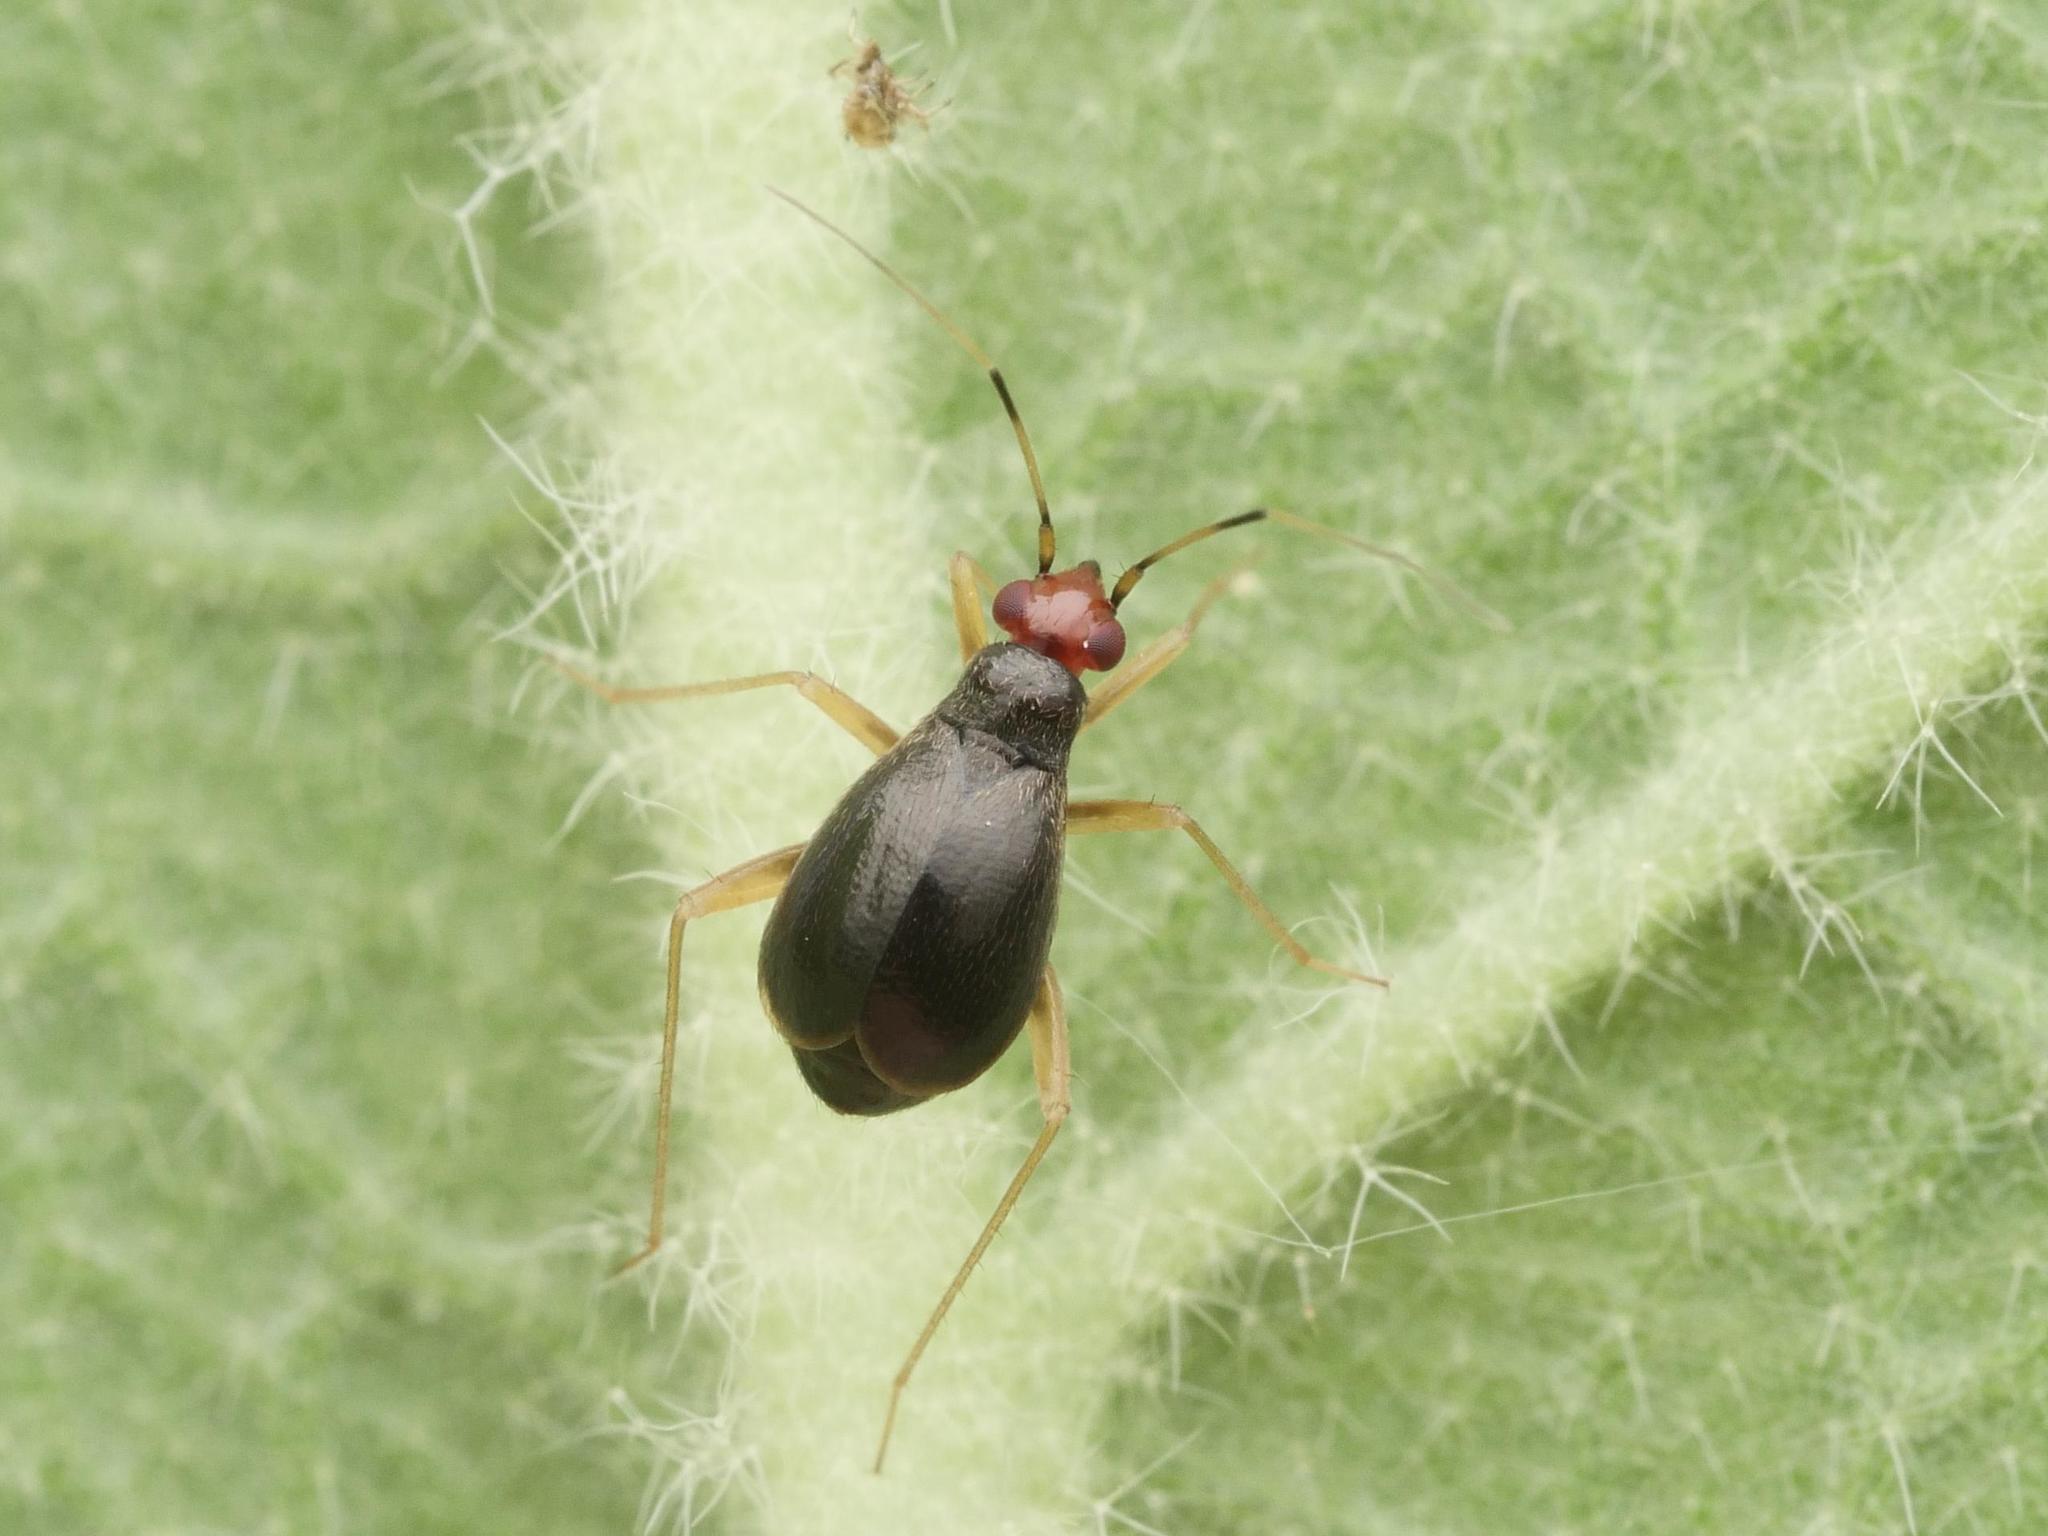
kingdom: Animalia
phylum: Arthropoda
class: Insecta
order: Hemiptera
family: Miridae
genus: Orthonotus
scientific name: Orthonotus rufifrons
